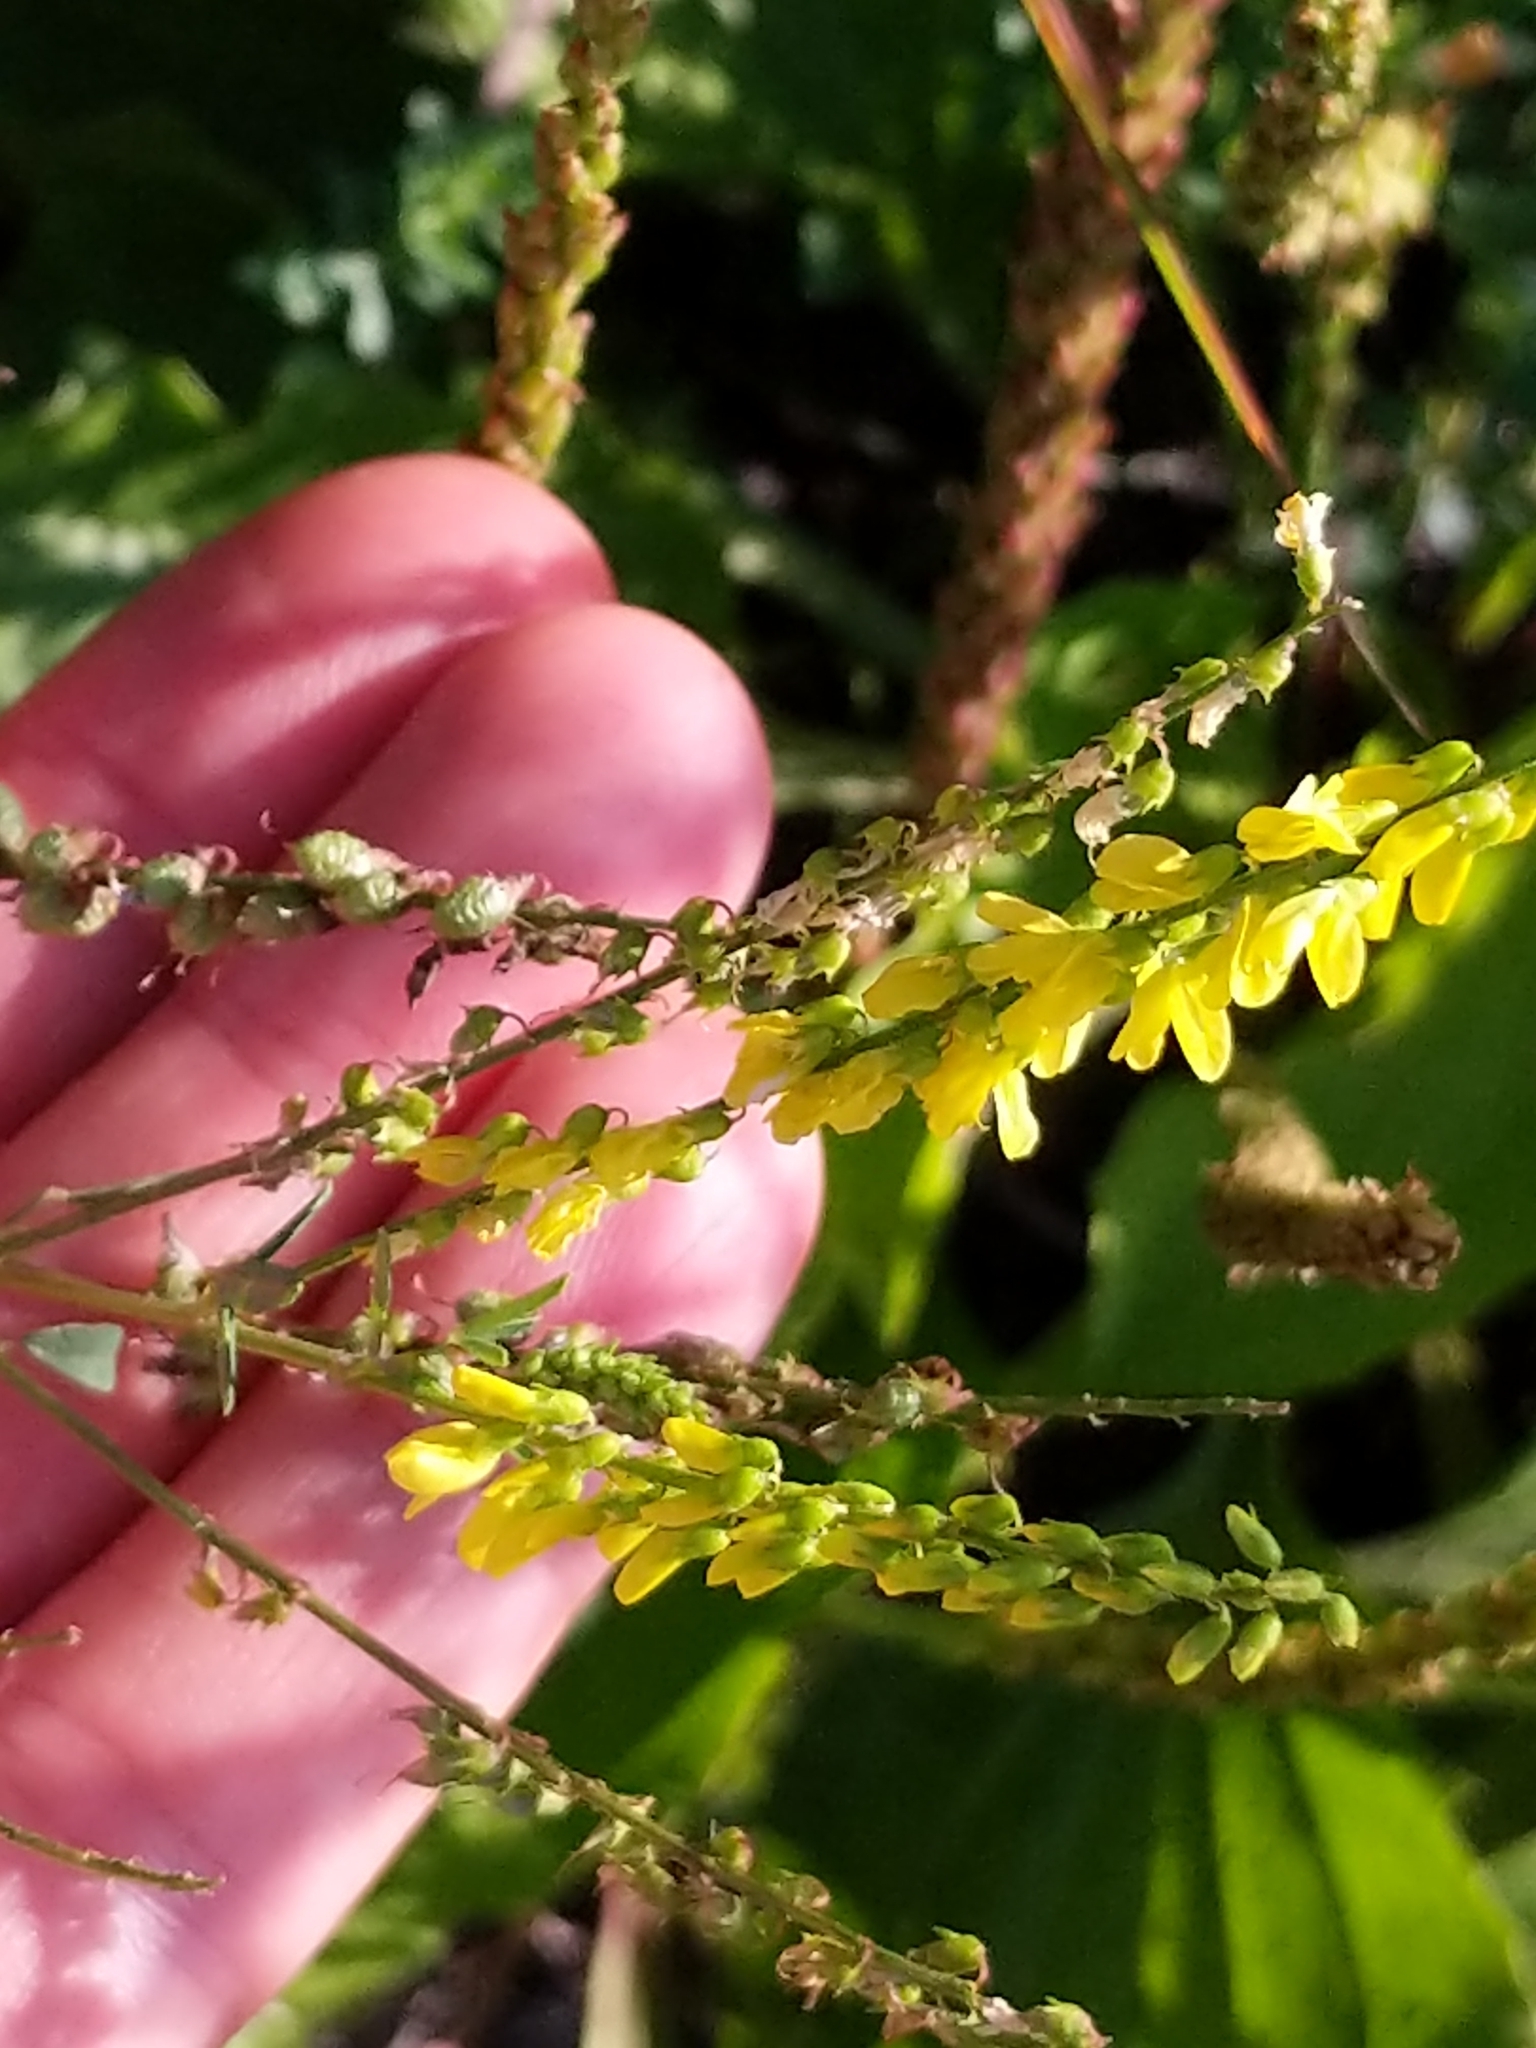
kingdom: Plantae
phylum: Tracheophyta
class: Magnoliopsida
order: Fabales
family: Fabaceae
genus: Melilotus
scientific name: Melilotus officinalis
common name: Sweetclover
